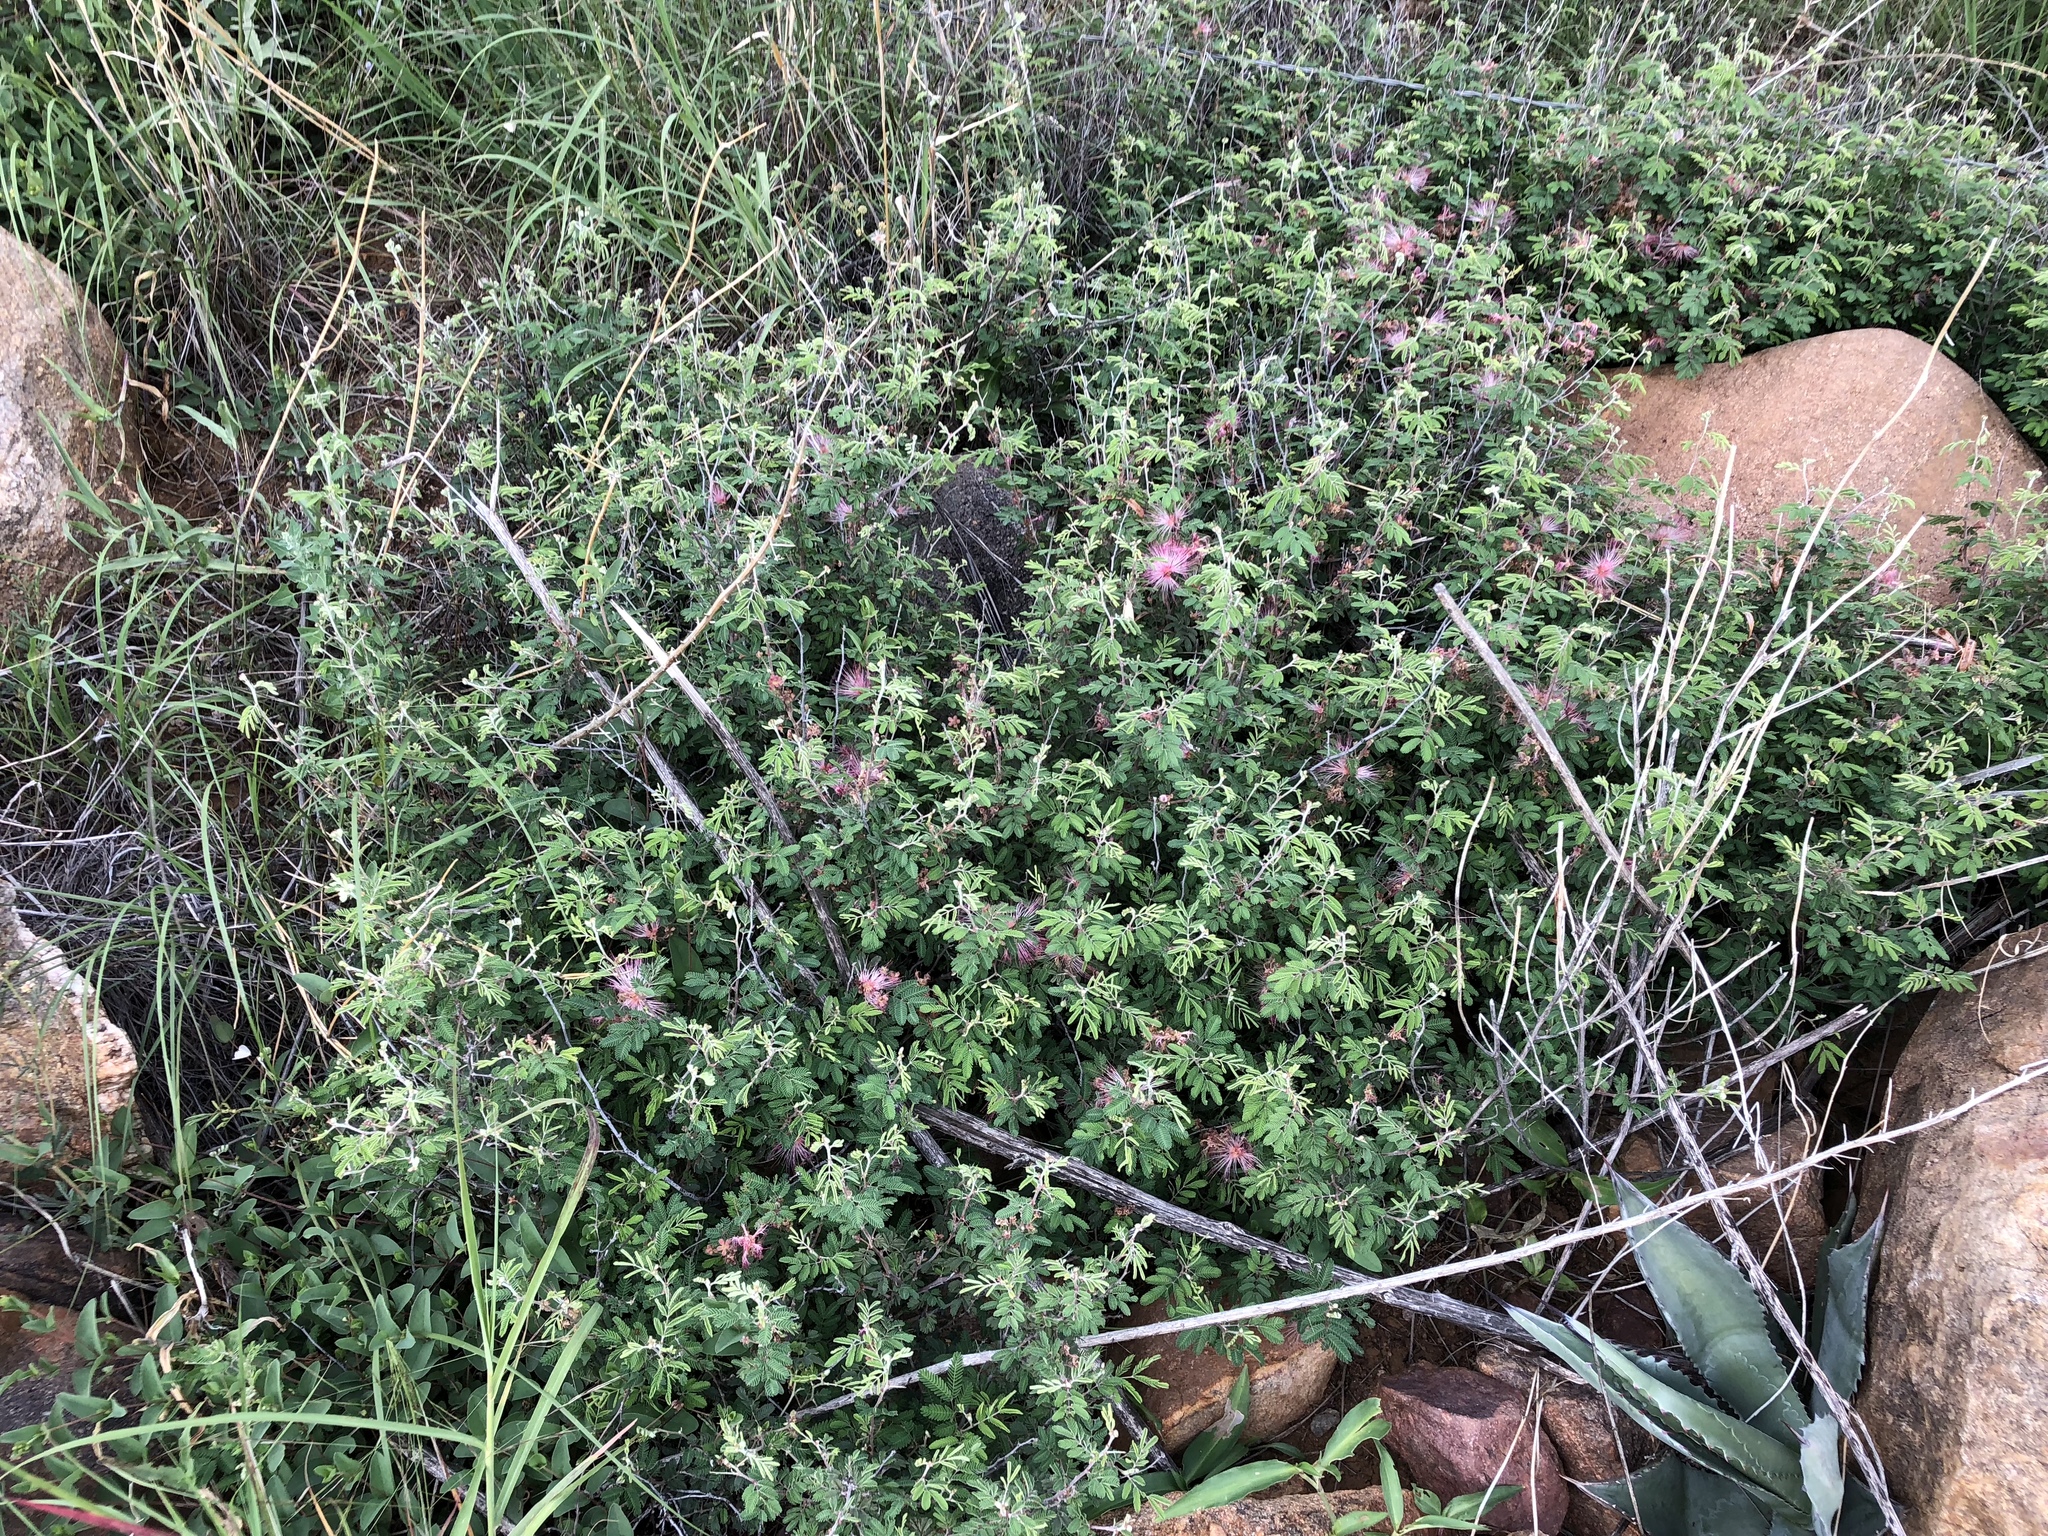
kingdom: Plantae
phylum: Tracheophyta
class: Magnoliopsida
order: Fabales
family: Fabaceae
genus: Calliandra
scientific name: Calliandra eriophylla
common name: Fairy-duster
